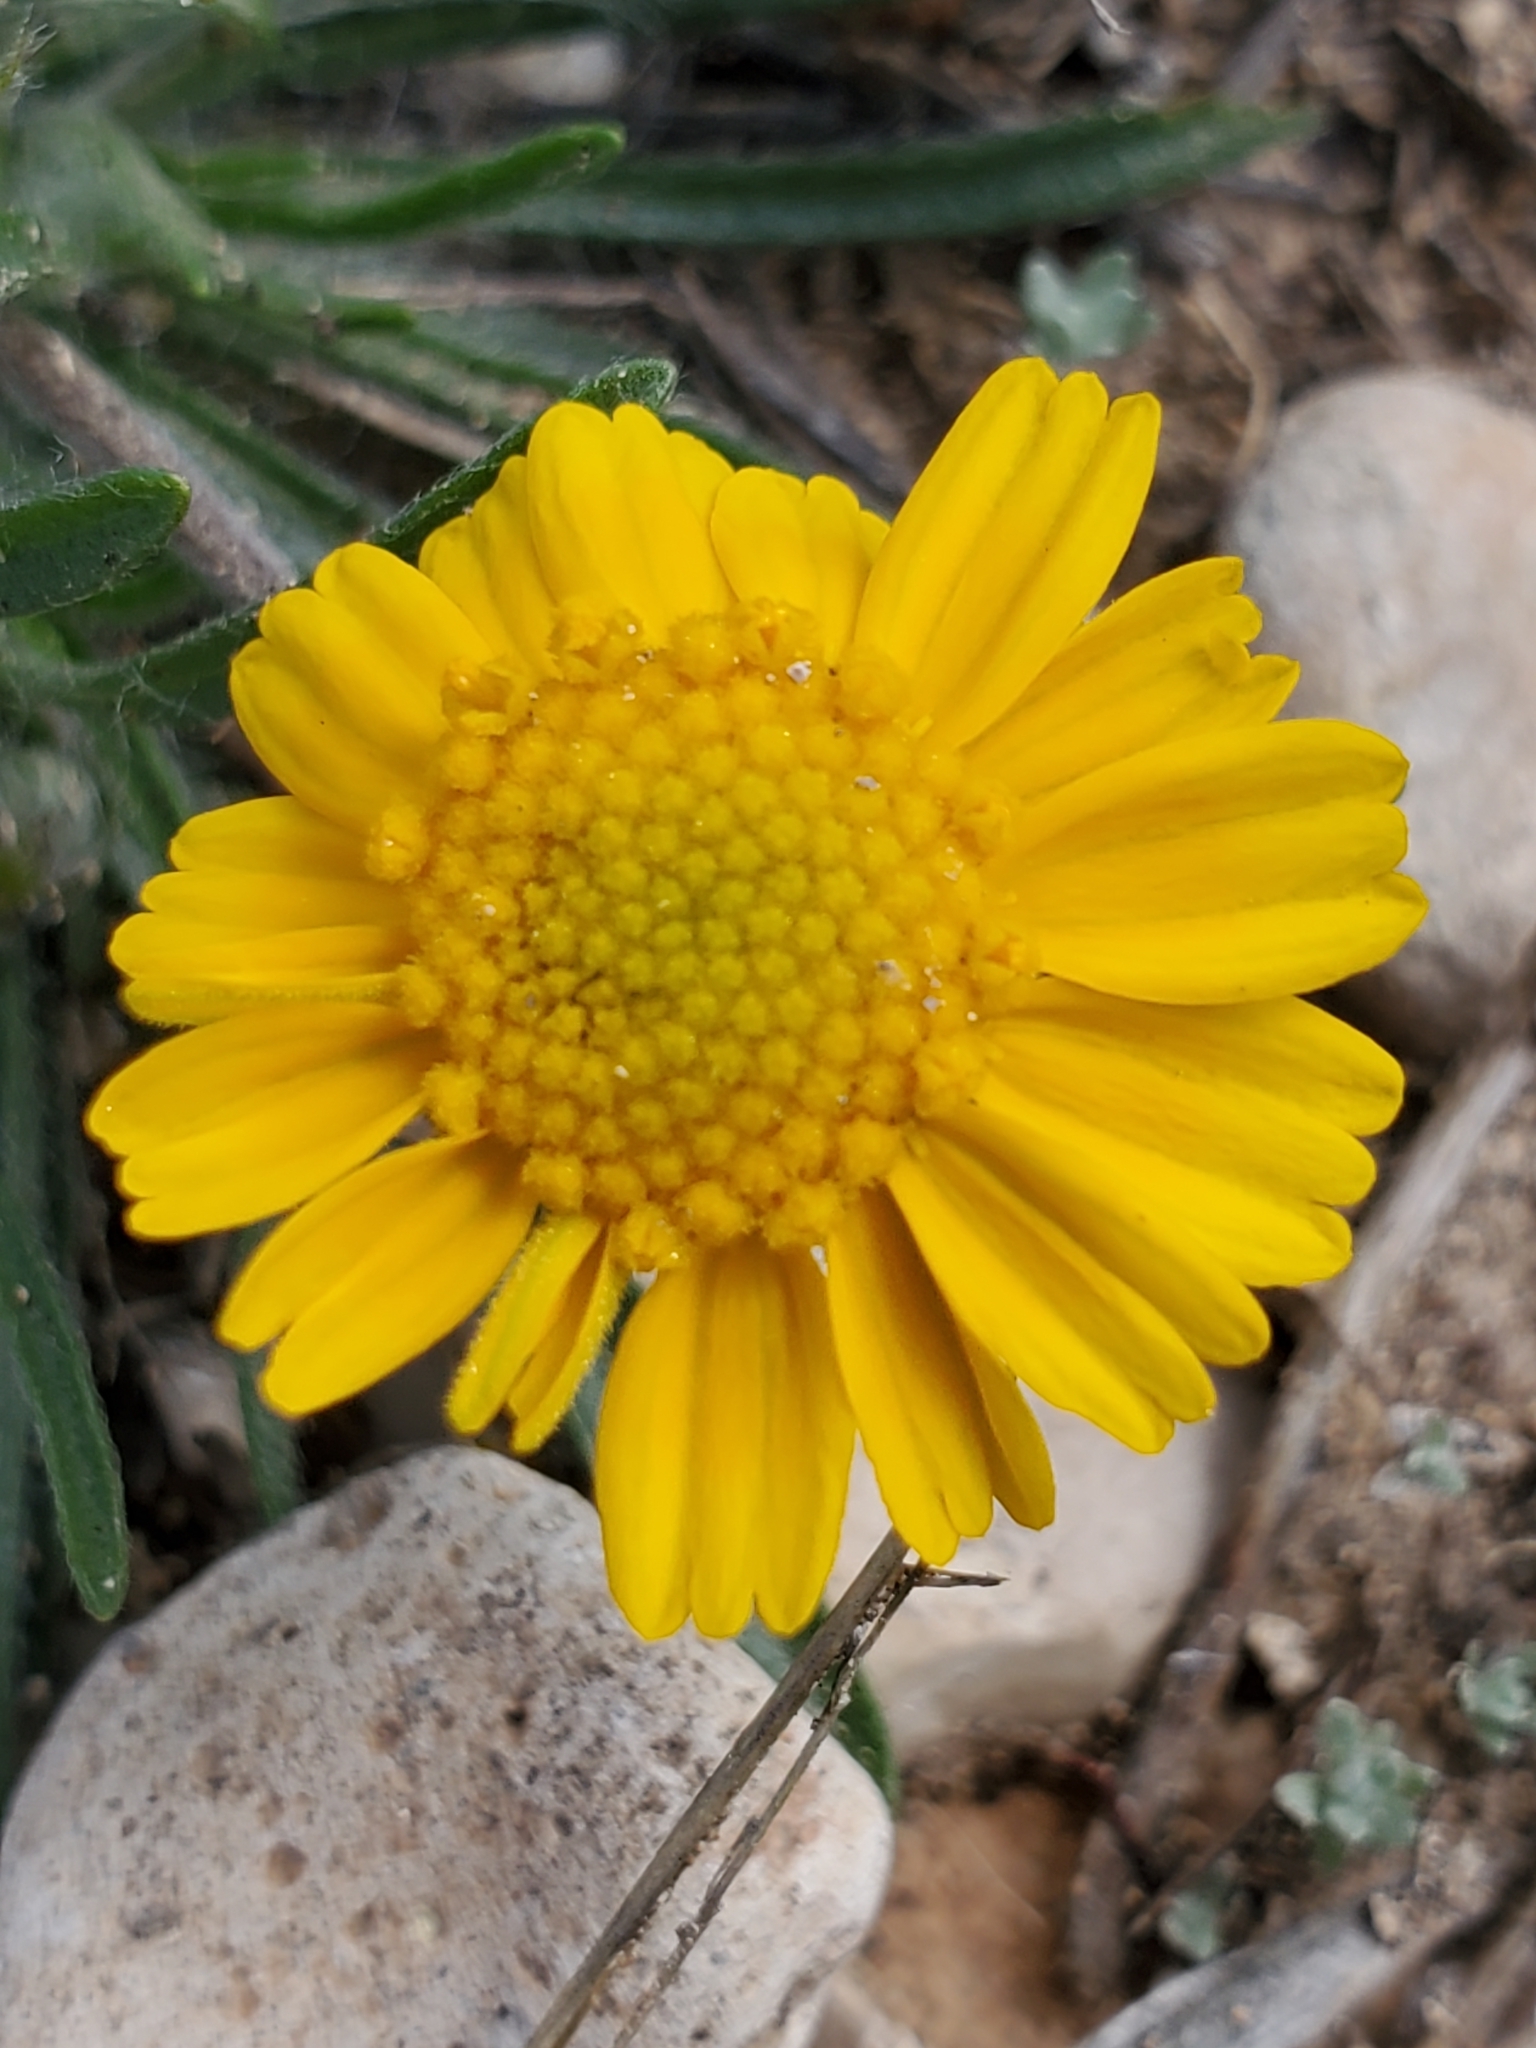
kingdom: Plantae
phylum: Tracheophyta
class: Magnoliopsida
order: Asterales
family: Asteraceae
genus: Tetraneuris
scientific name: Tetraneuris scaposa
